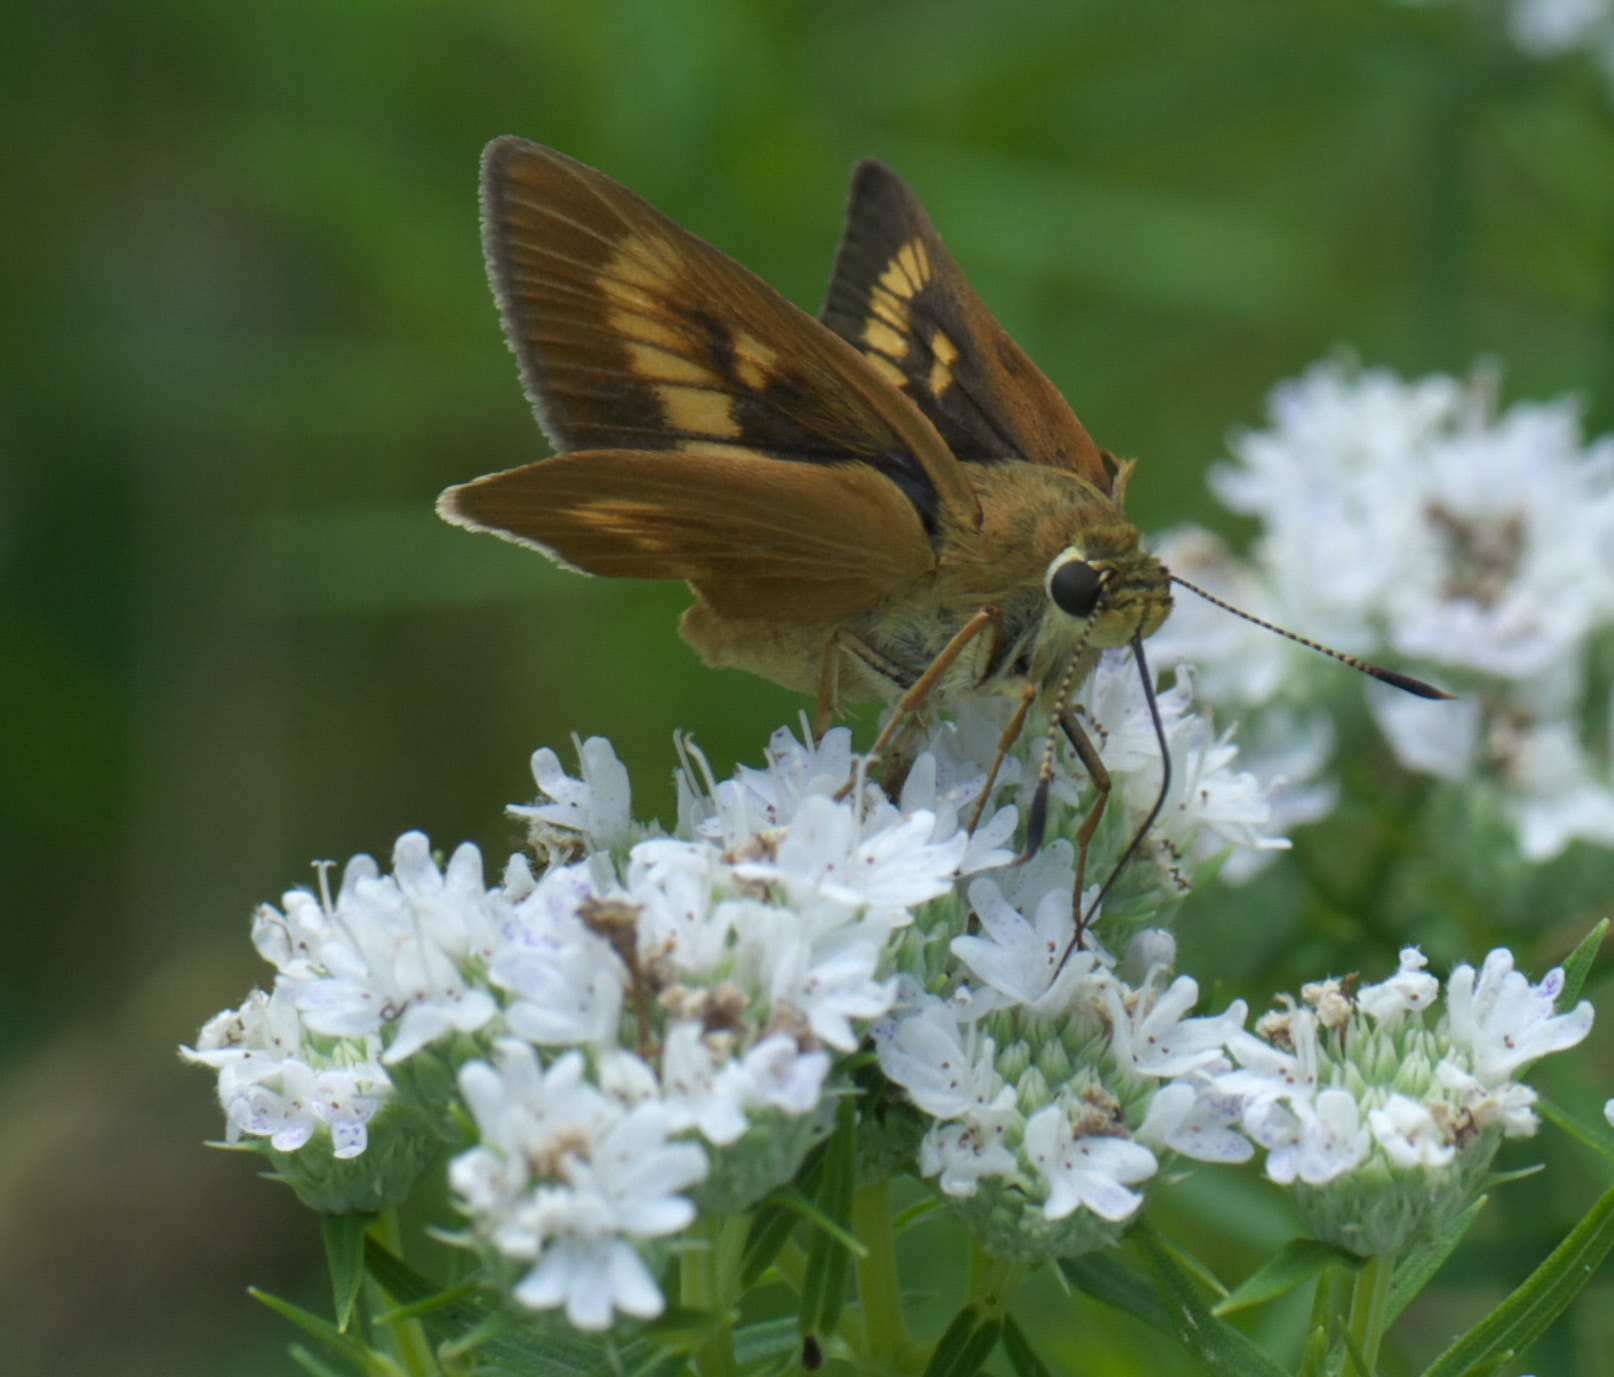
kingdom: Animalia
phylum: Arthropoda
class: Insecta
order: Lepidoptera
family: Hesperiidae
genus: Problema
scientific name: Problema byssus
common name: Byssus skipper
